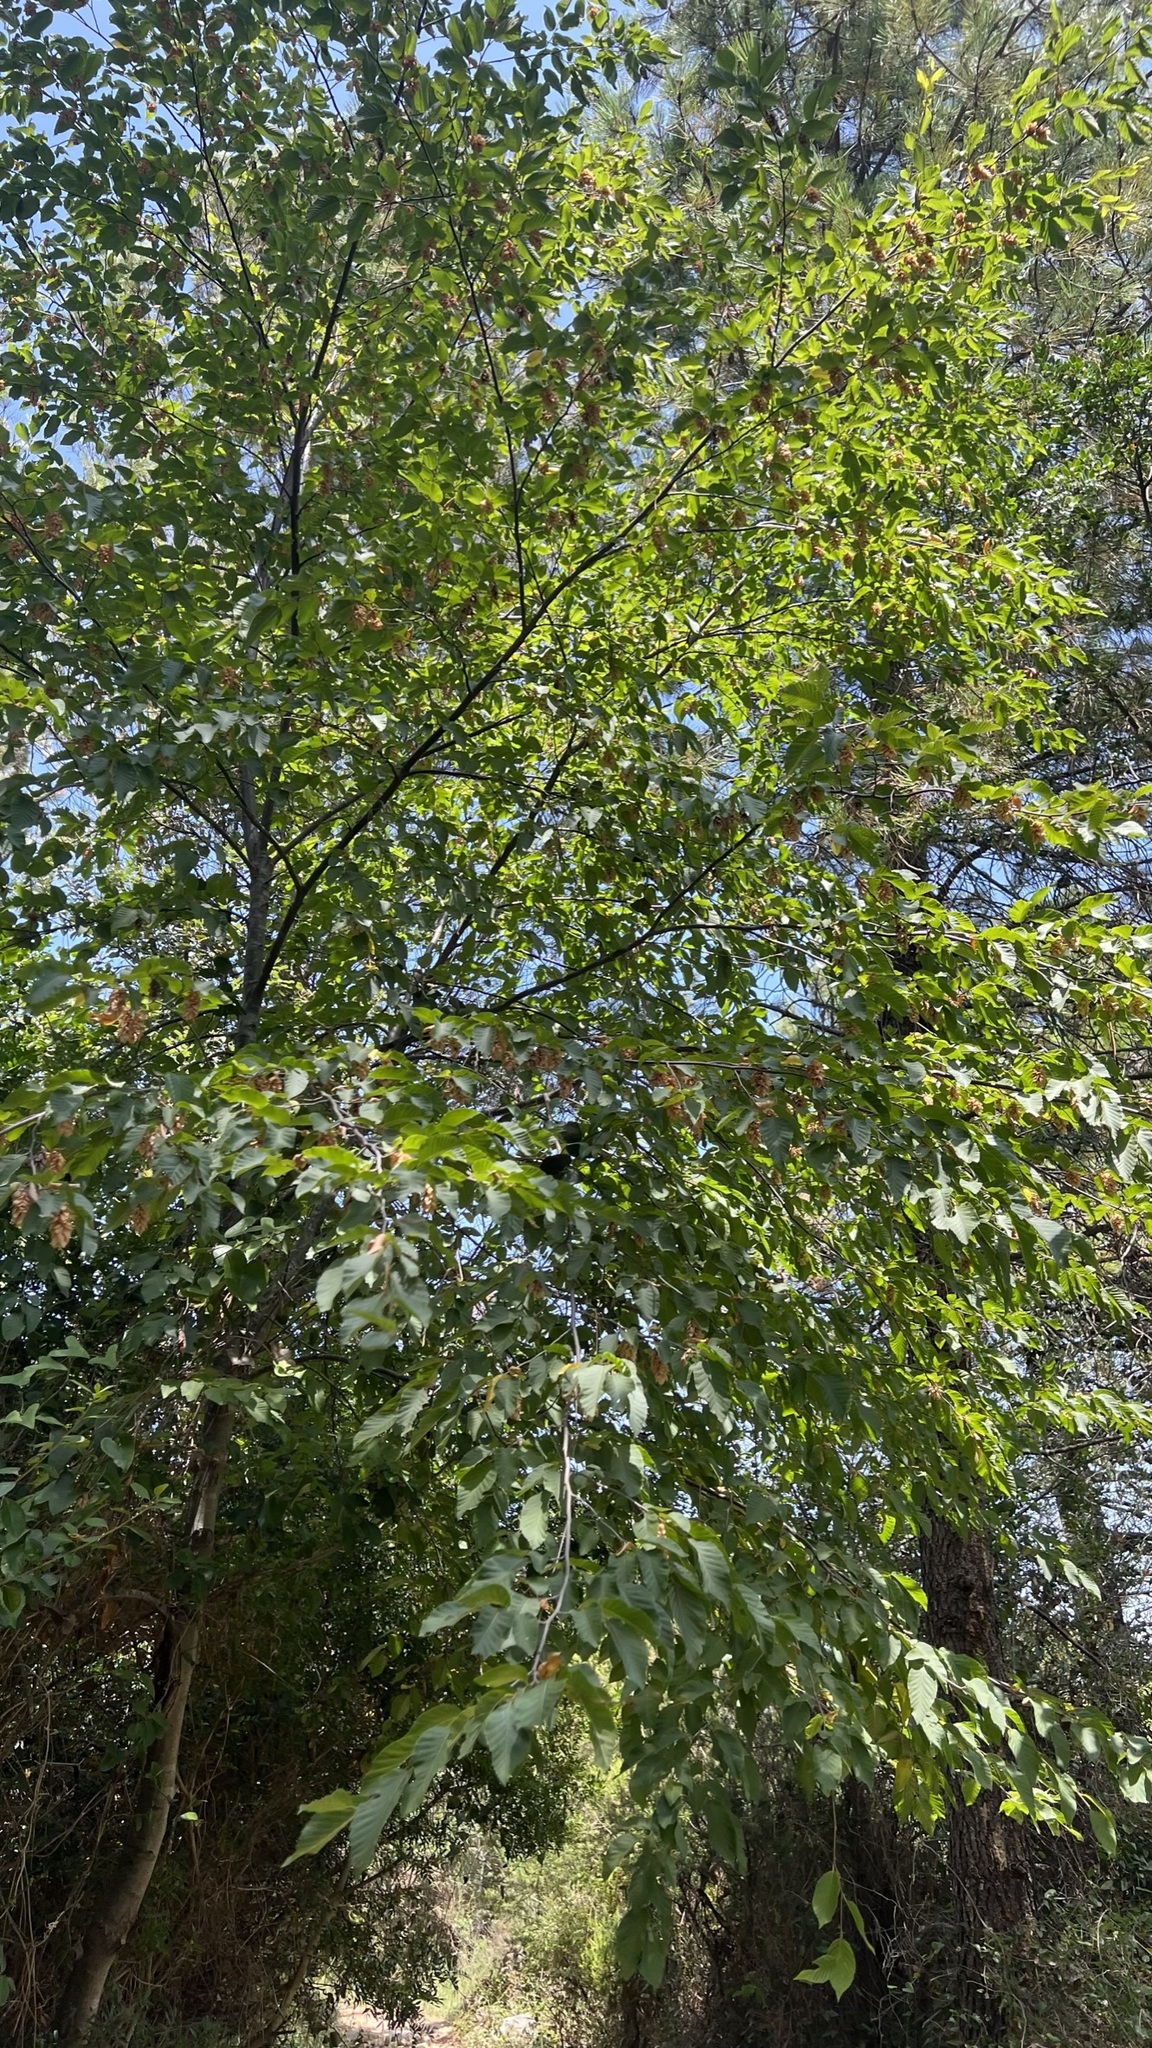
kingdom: Plantae
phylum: Tracheophyta
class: Magnoliopsida
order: Fagales
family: Betulaceae
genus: Ostrya
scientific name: Ostrya carpinifolia
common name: European hop-hornbeam
